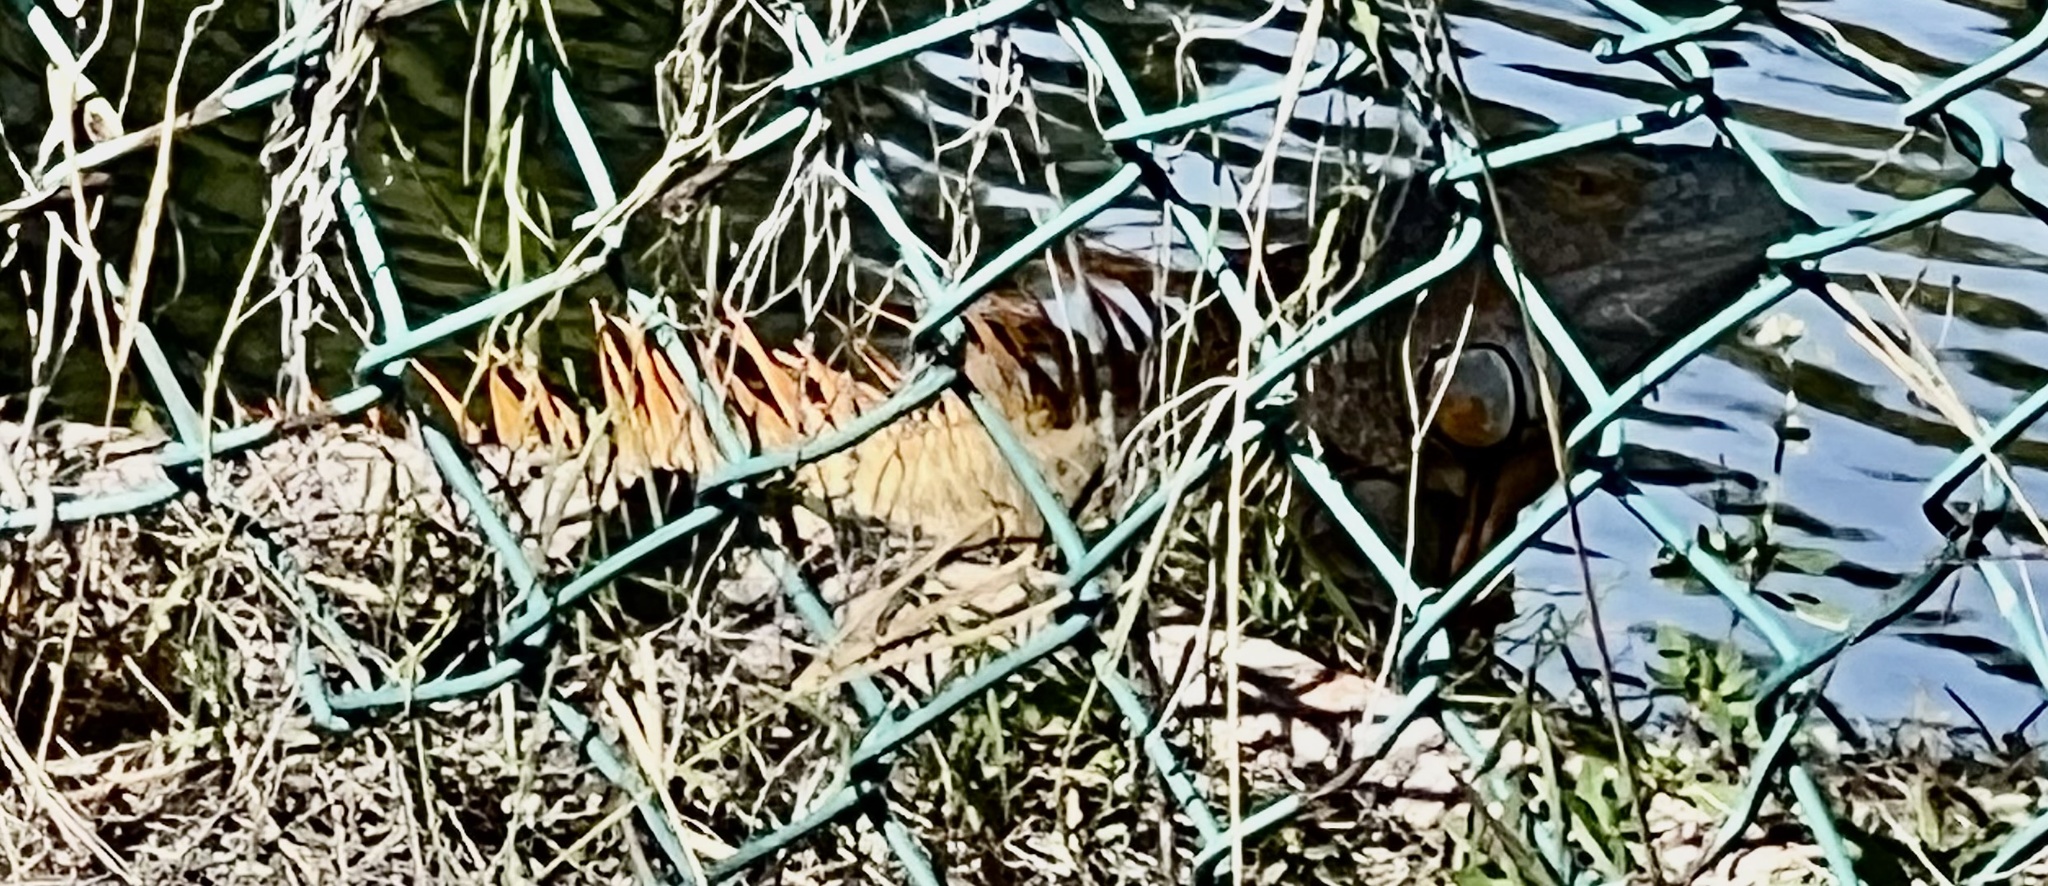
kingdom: Animalia
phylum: Chordata
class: Squamata
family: Iguanidae
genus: Iguana
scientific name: Iguana iguana
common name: Green iguana
